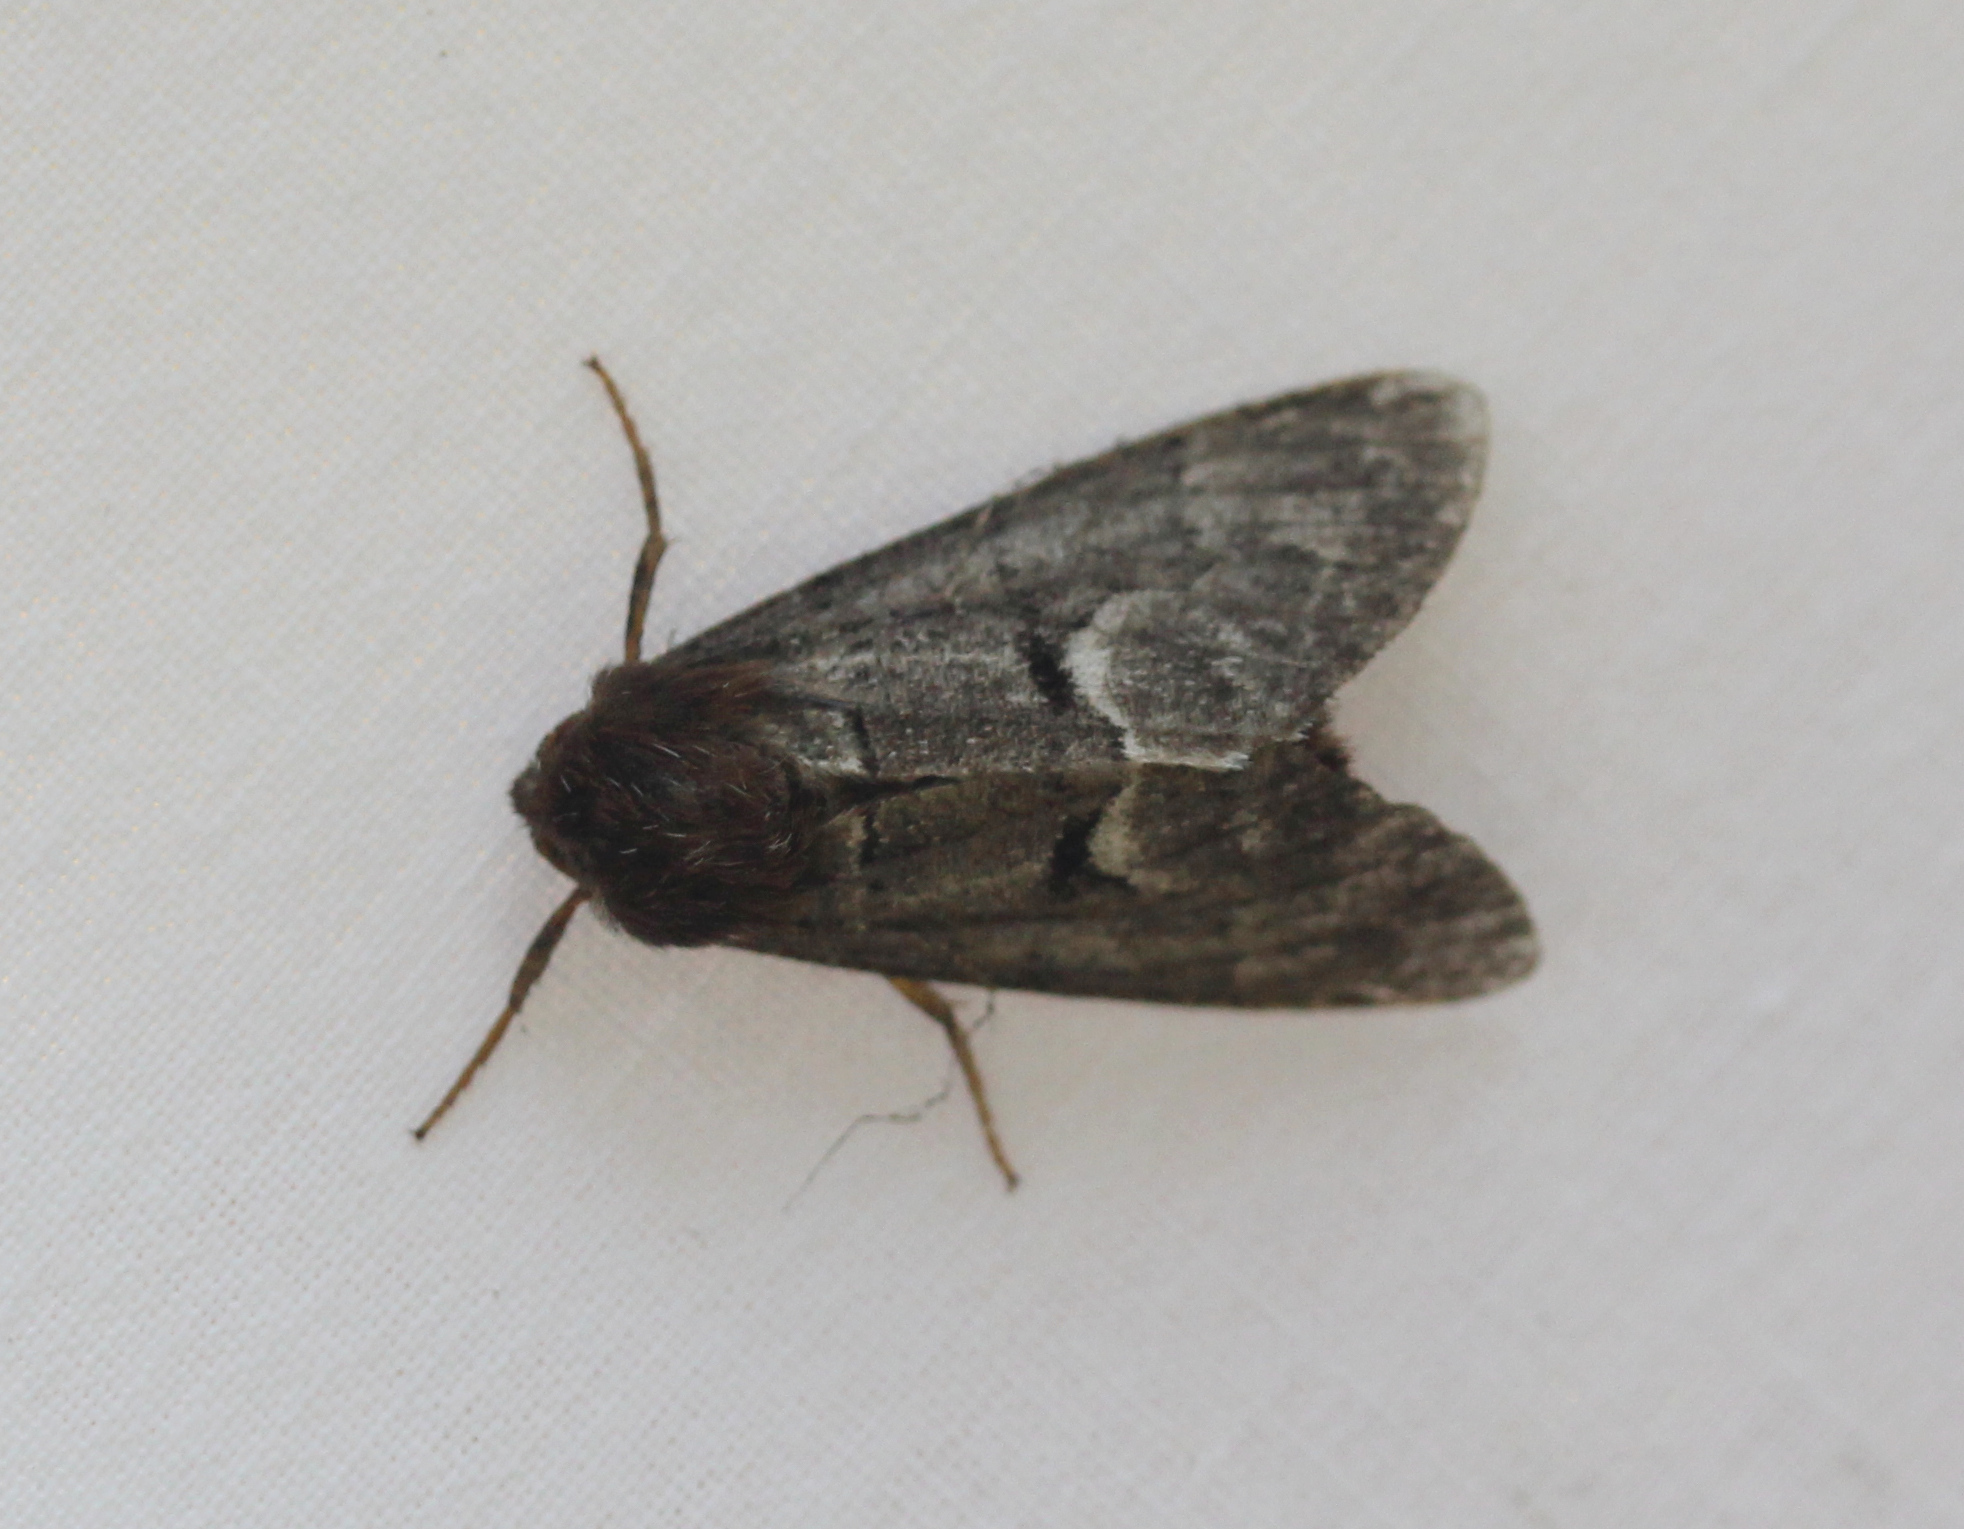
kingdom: Animalia
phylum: Arthropoda
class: Insecta
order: Lepidoptera
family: Noctuidae
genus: Panthea
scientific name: Panthea furcilla
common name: Eastern panthea moth
